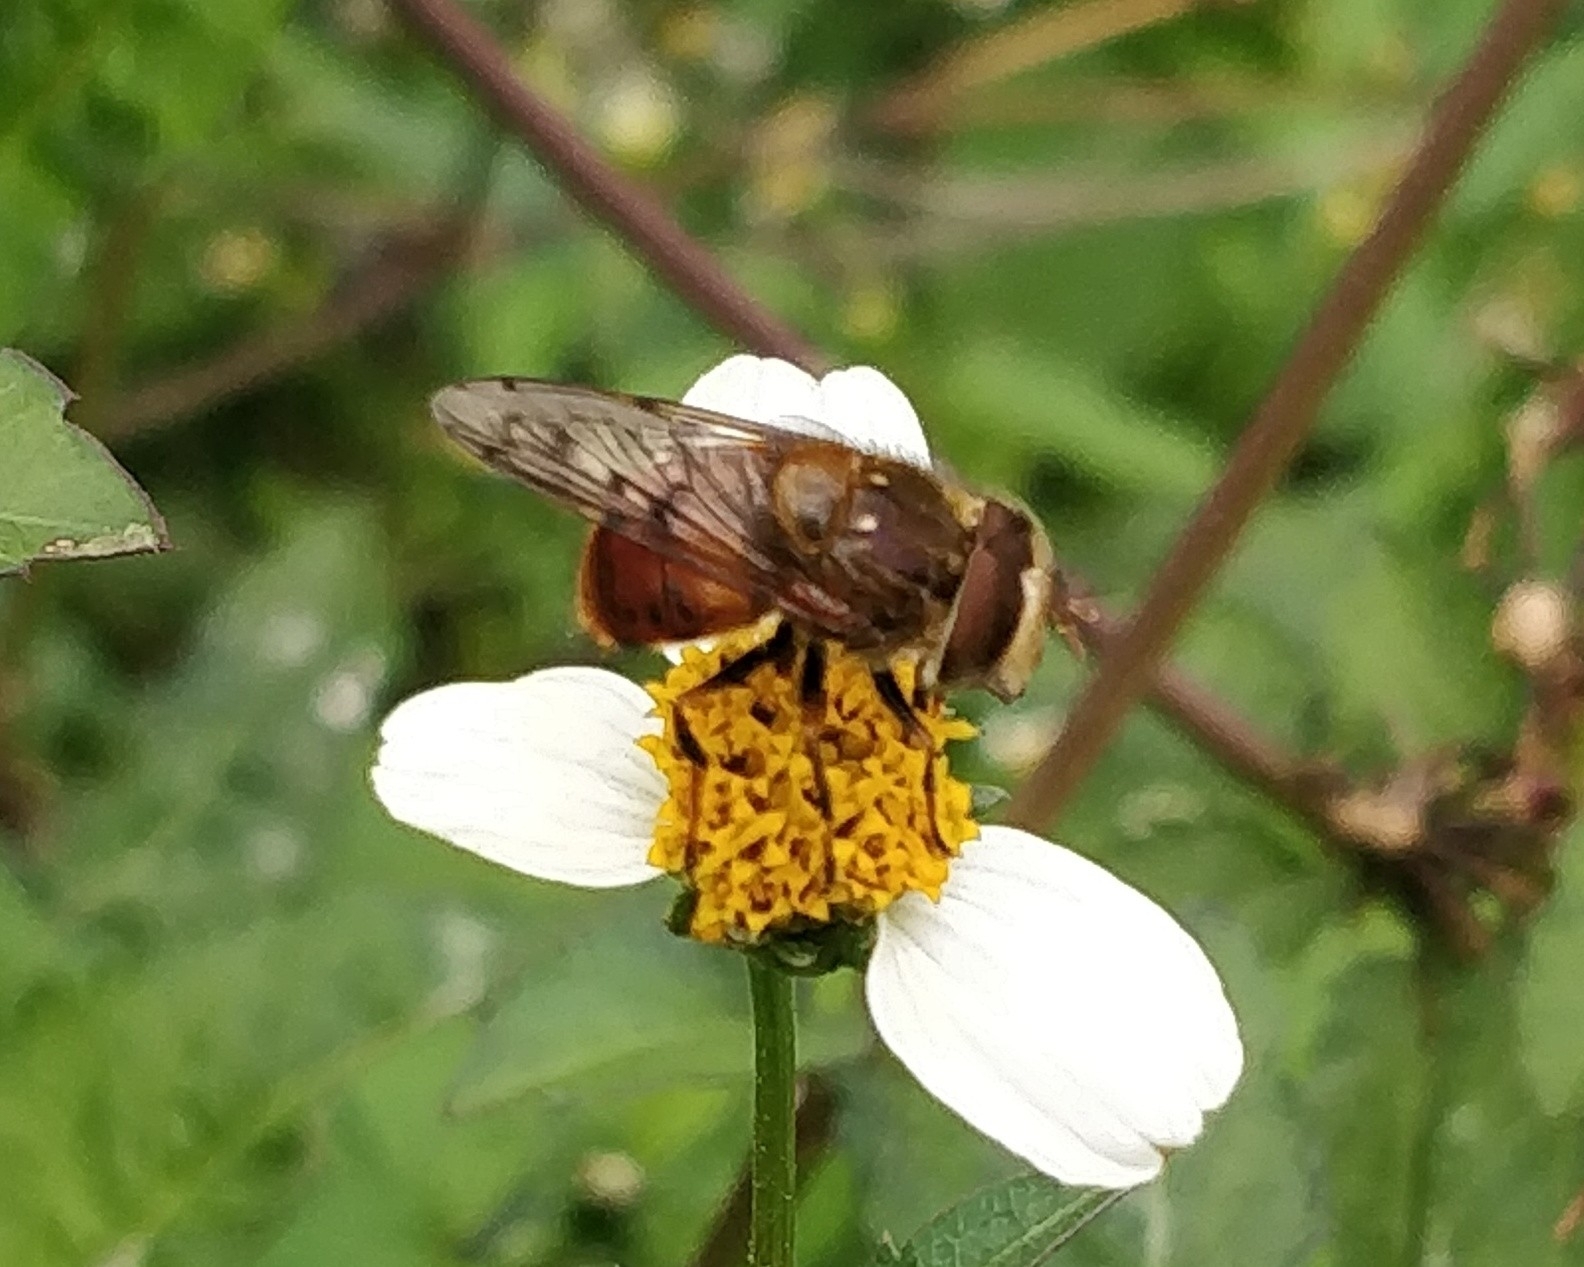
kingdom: Animalia
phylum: Arthropoda
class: Insecta
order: Diptera
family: Syrphidae
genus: Copestylum
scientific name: Copestylum melleum
